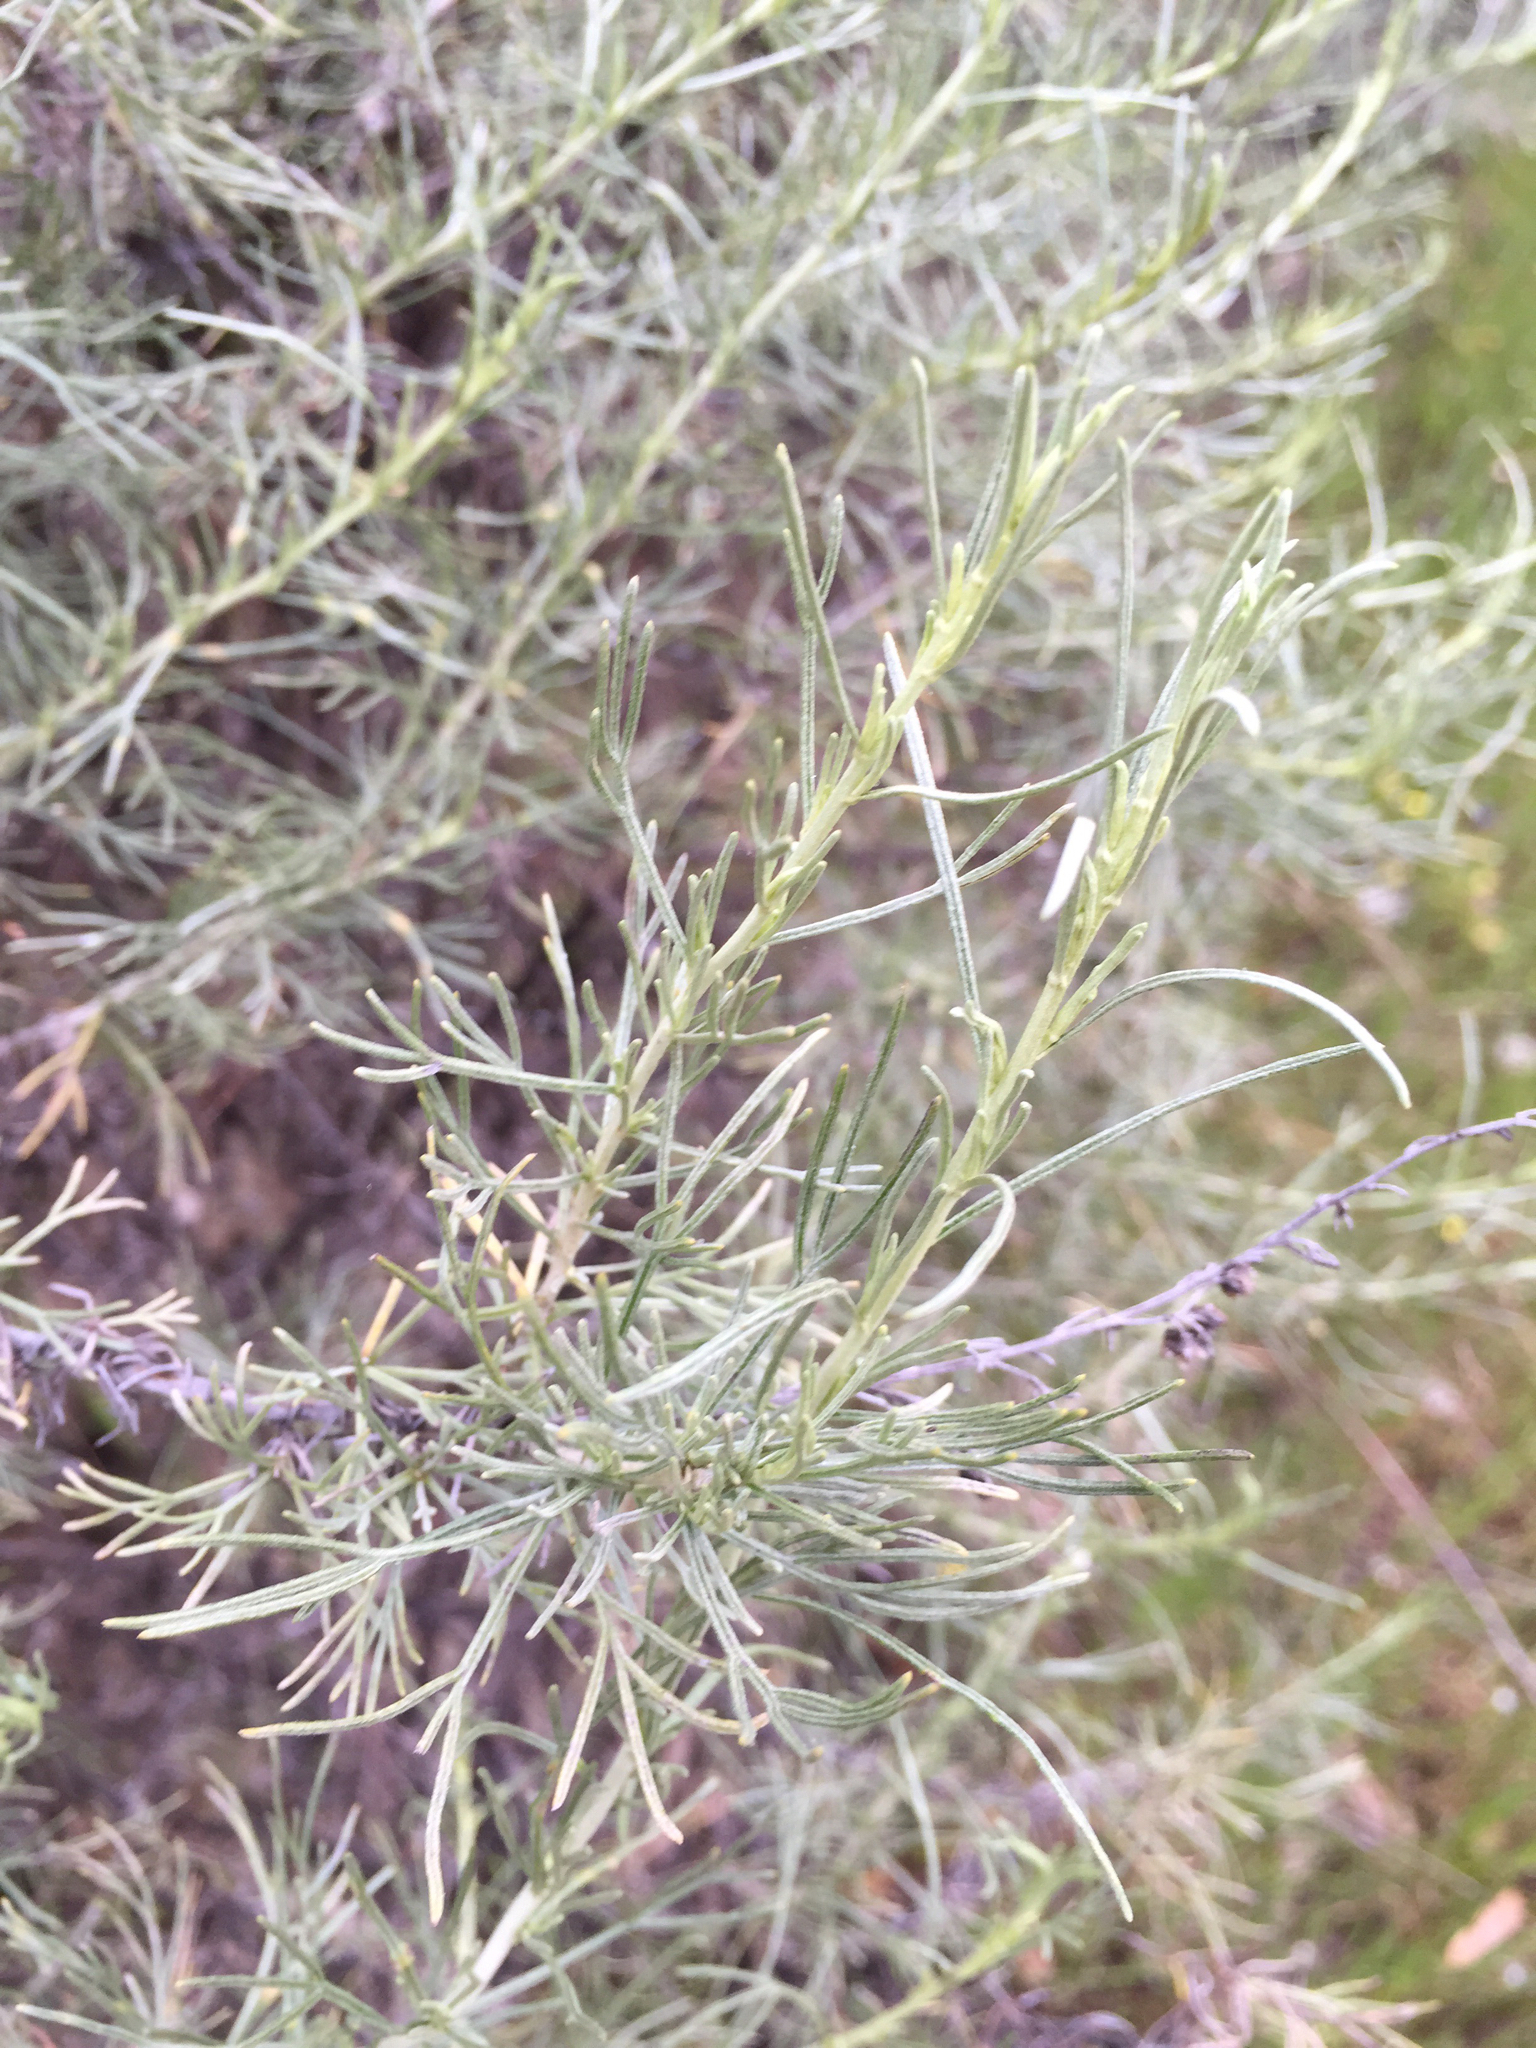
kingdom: Plantae
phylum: Tracheophyta
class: Magnoliopsida
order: Asterales
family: Asteraceae
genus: Artemisia
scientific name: Artemisia californica
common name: California sagebrush
